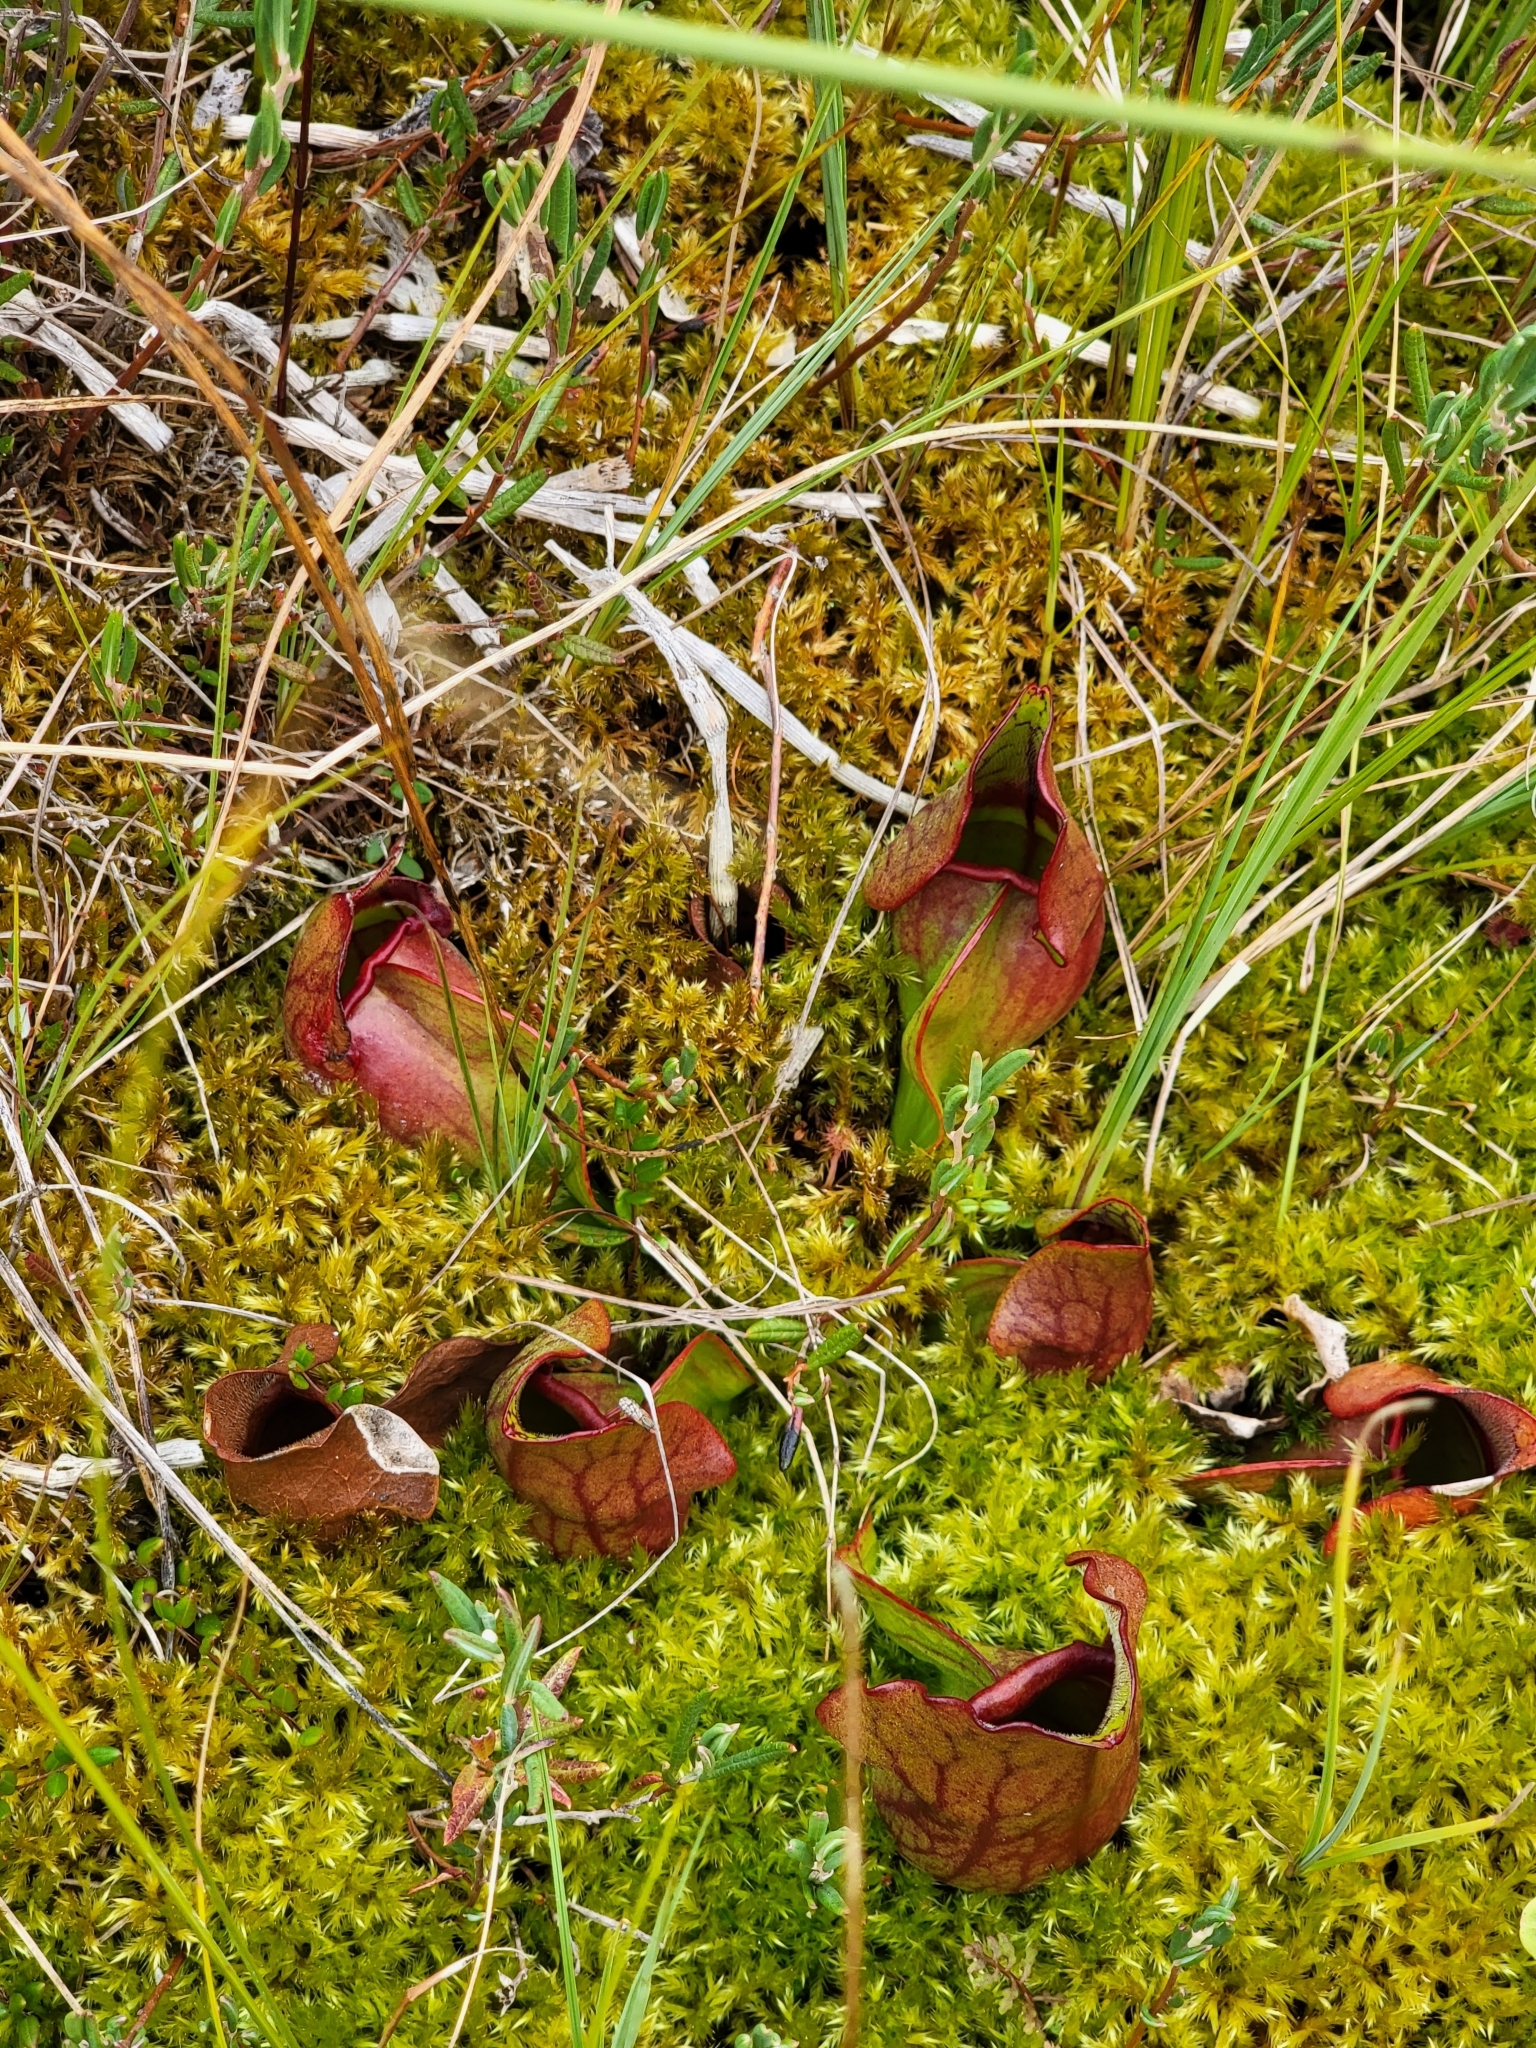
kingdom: Plantae
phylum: Tracheophyta
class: Magnoliopsida
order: Ericales
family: Sarraceniaceae
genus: Sarracenia
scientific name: Sarracenia purpurea
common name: Pitcherplant
